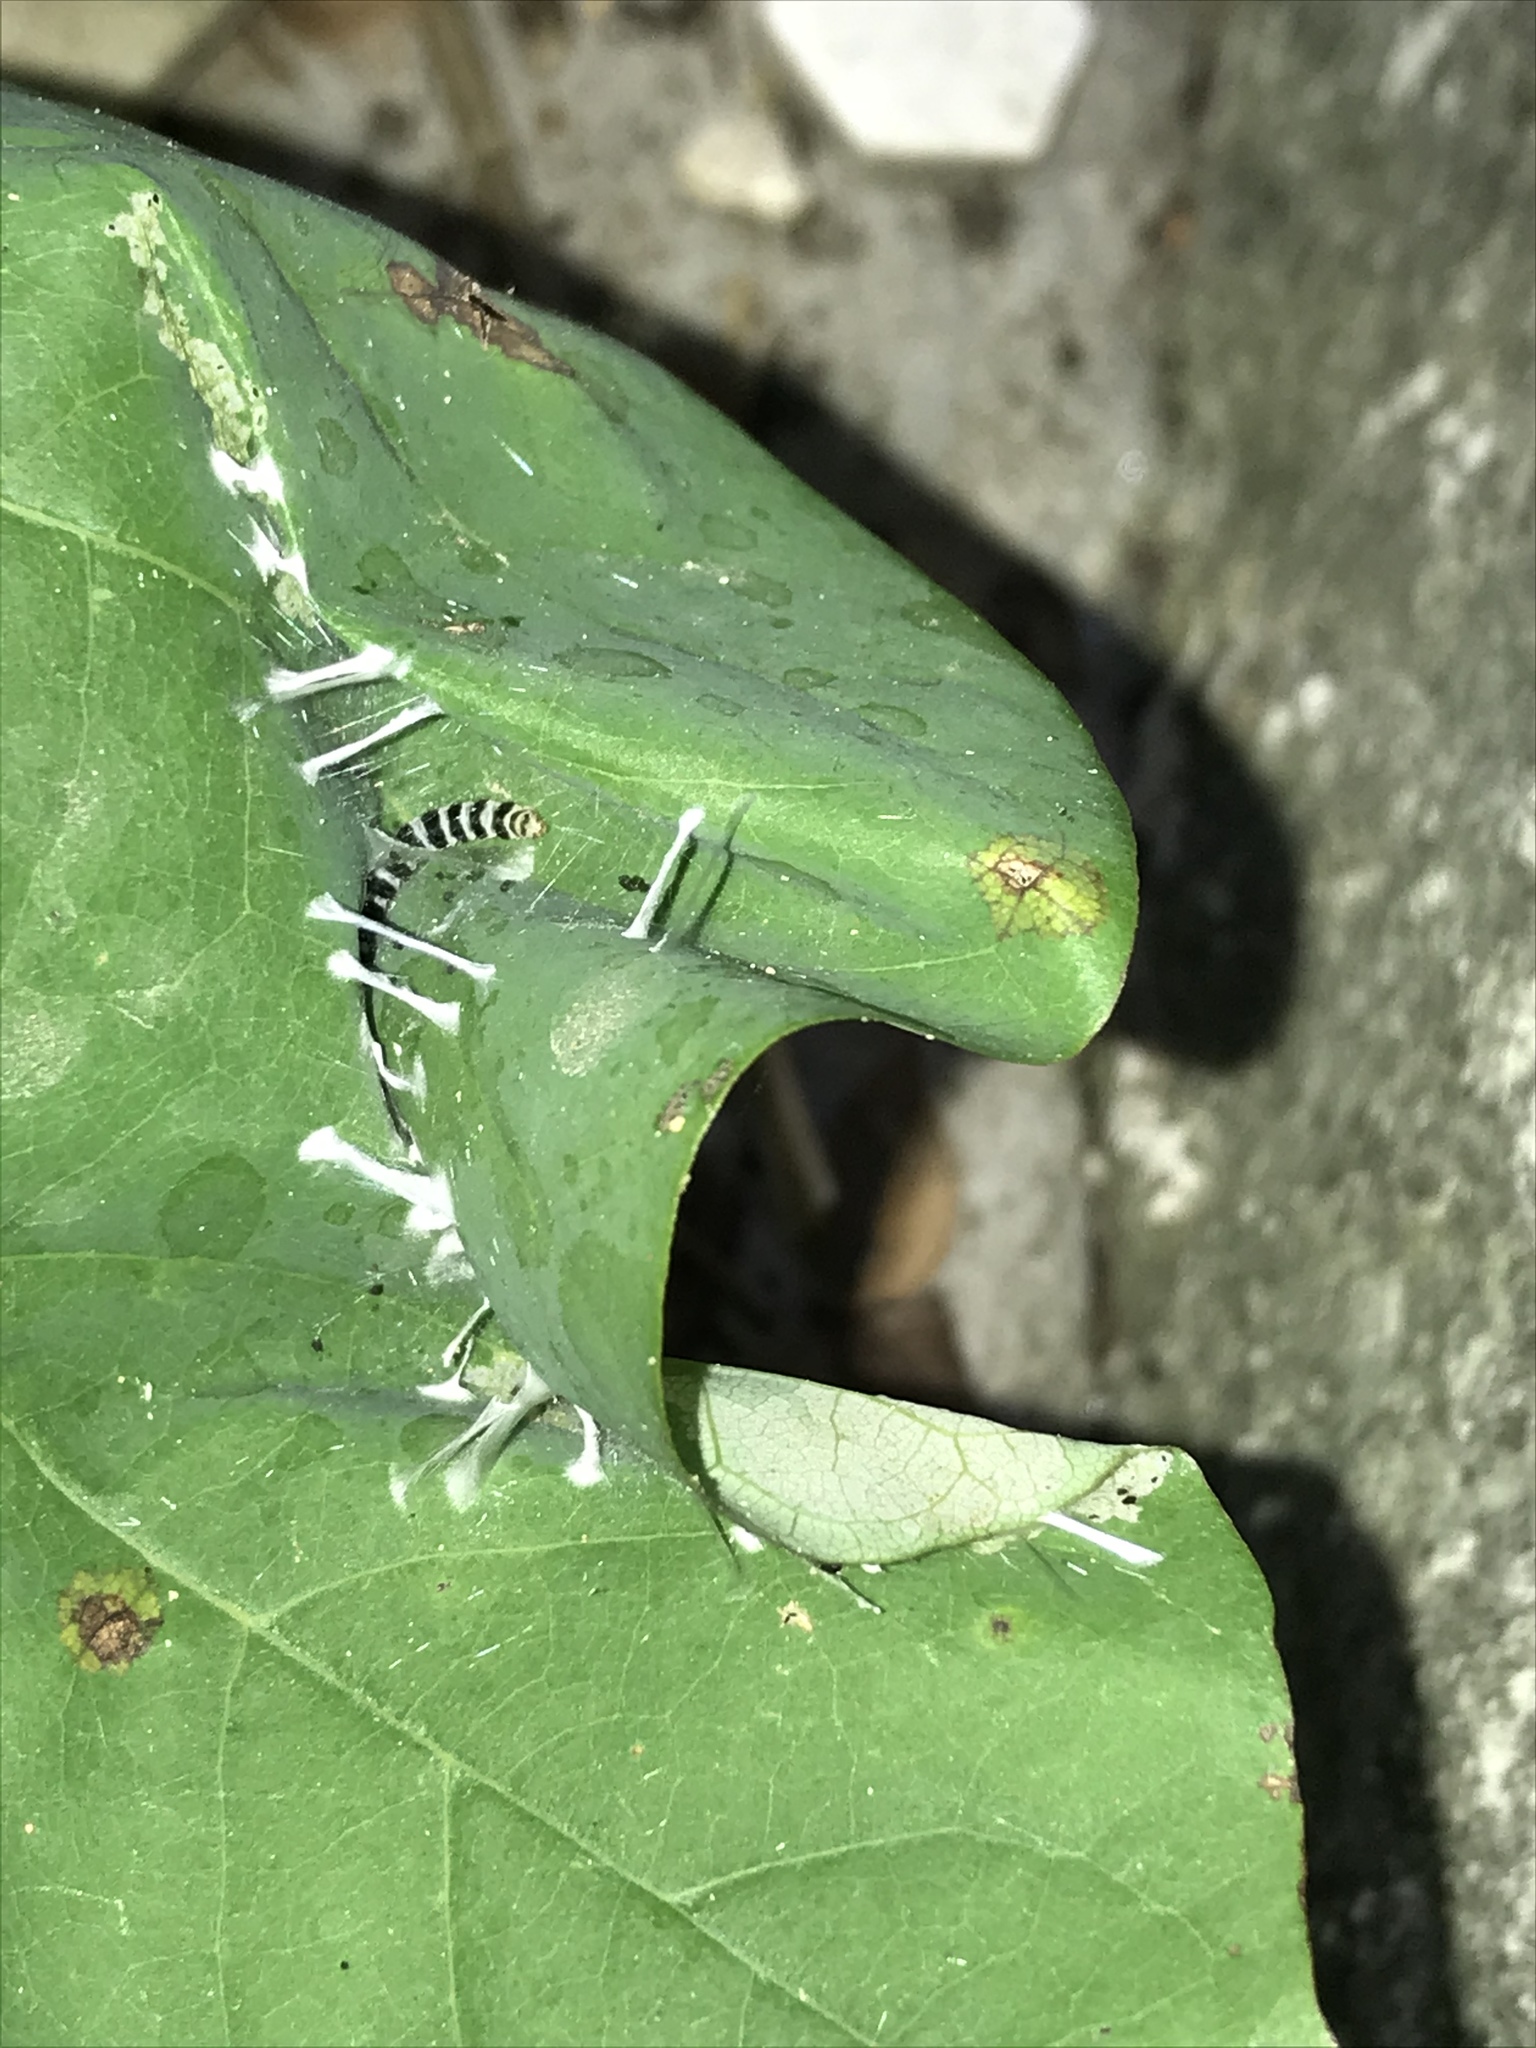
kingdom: Animalia
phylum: Arthropoda
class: Insecta
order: Lepidoptera
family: Gelechiidae
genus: Fascista
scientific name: Fascista cercerisella
